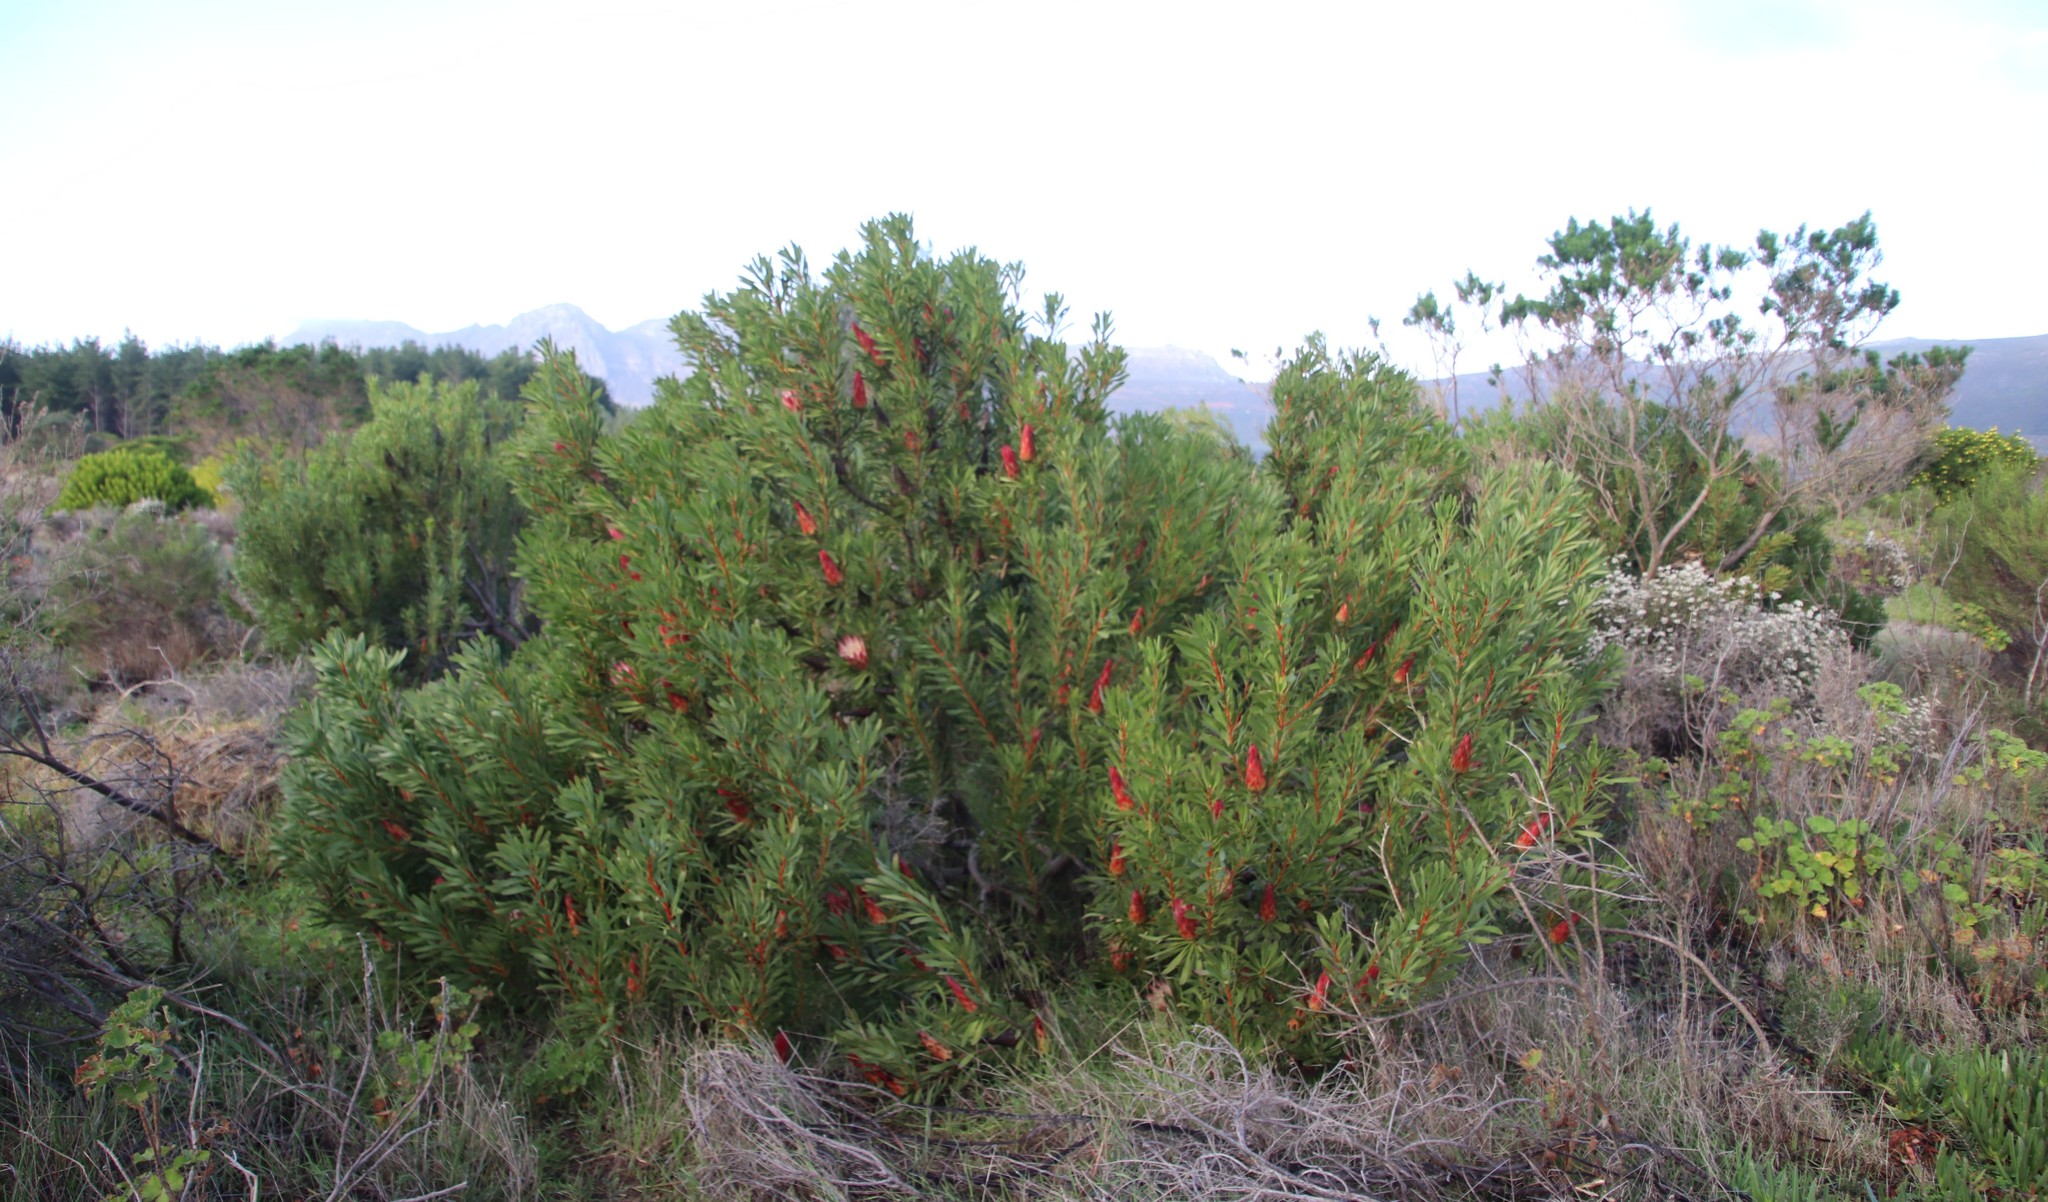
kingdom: Plantae
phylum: Tracheophyta
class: Magnoliopsida
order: Proteales
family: Proteaceae
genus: Protea
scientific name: Protea repens
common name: Sugarbush
